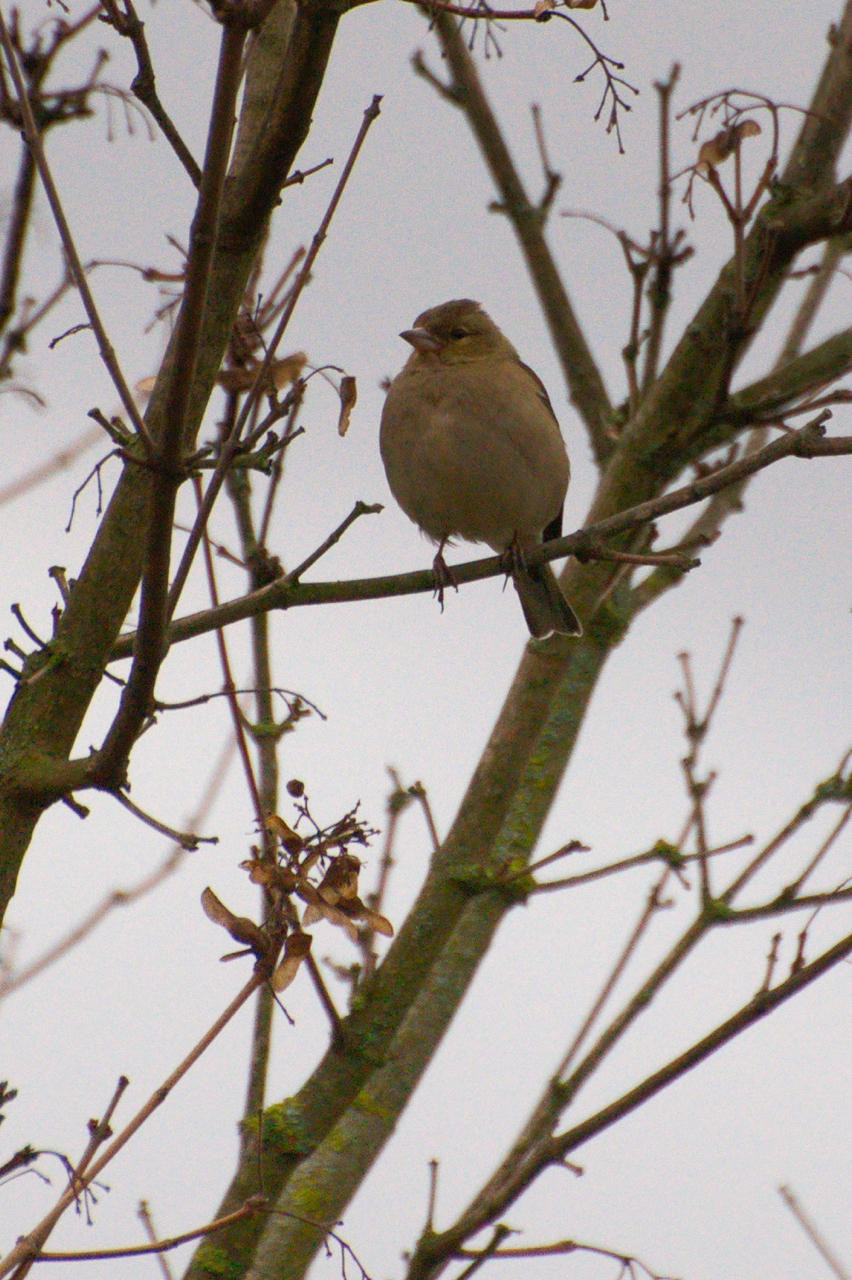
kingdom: Animalia
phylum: Chordata
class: Aves
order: Passeriformes
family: Fringillidae
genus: Fringilla
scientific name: Fringilla coelebs
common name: Common chaffinch
